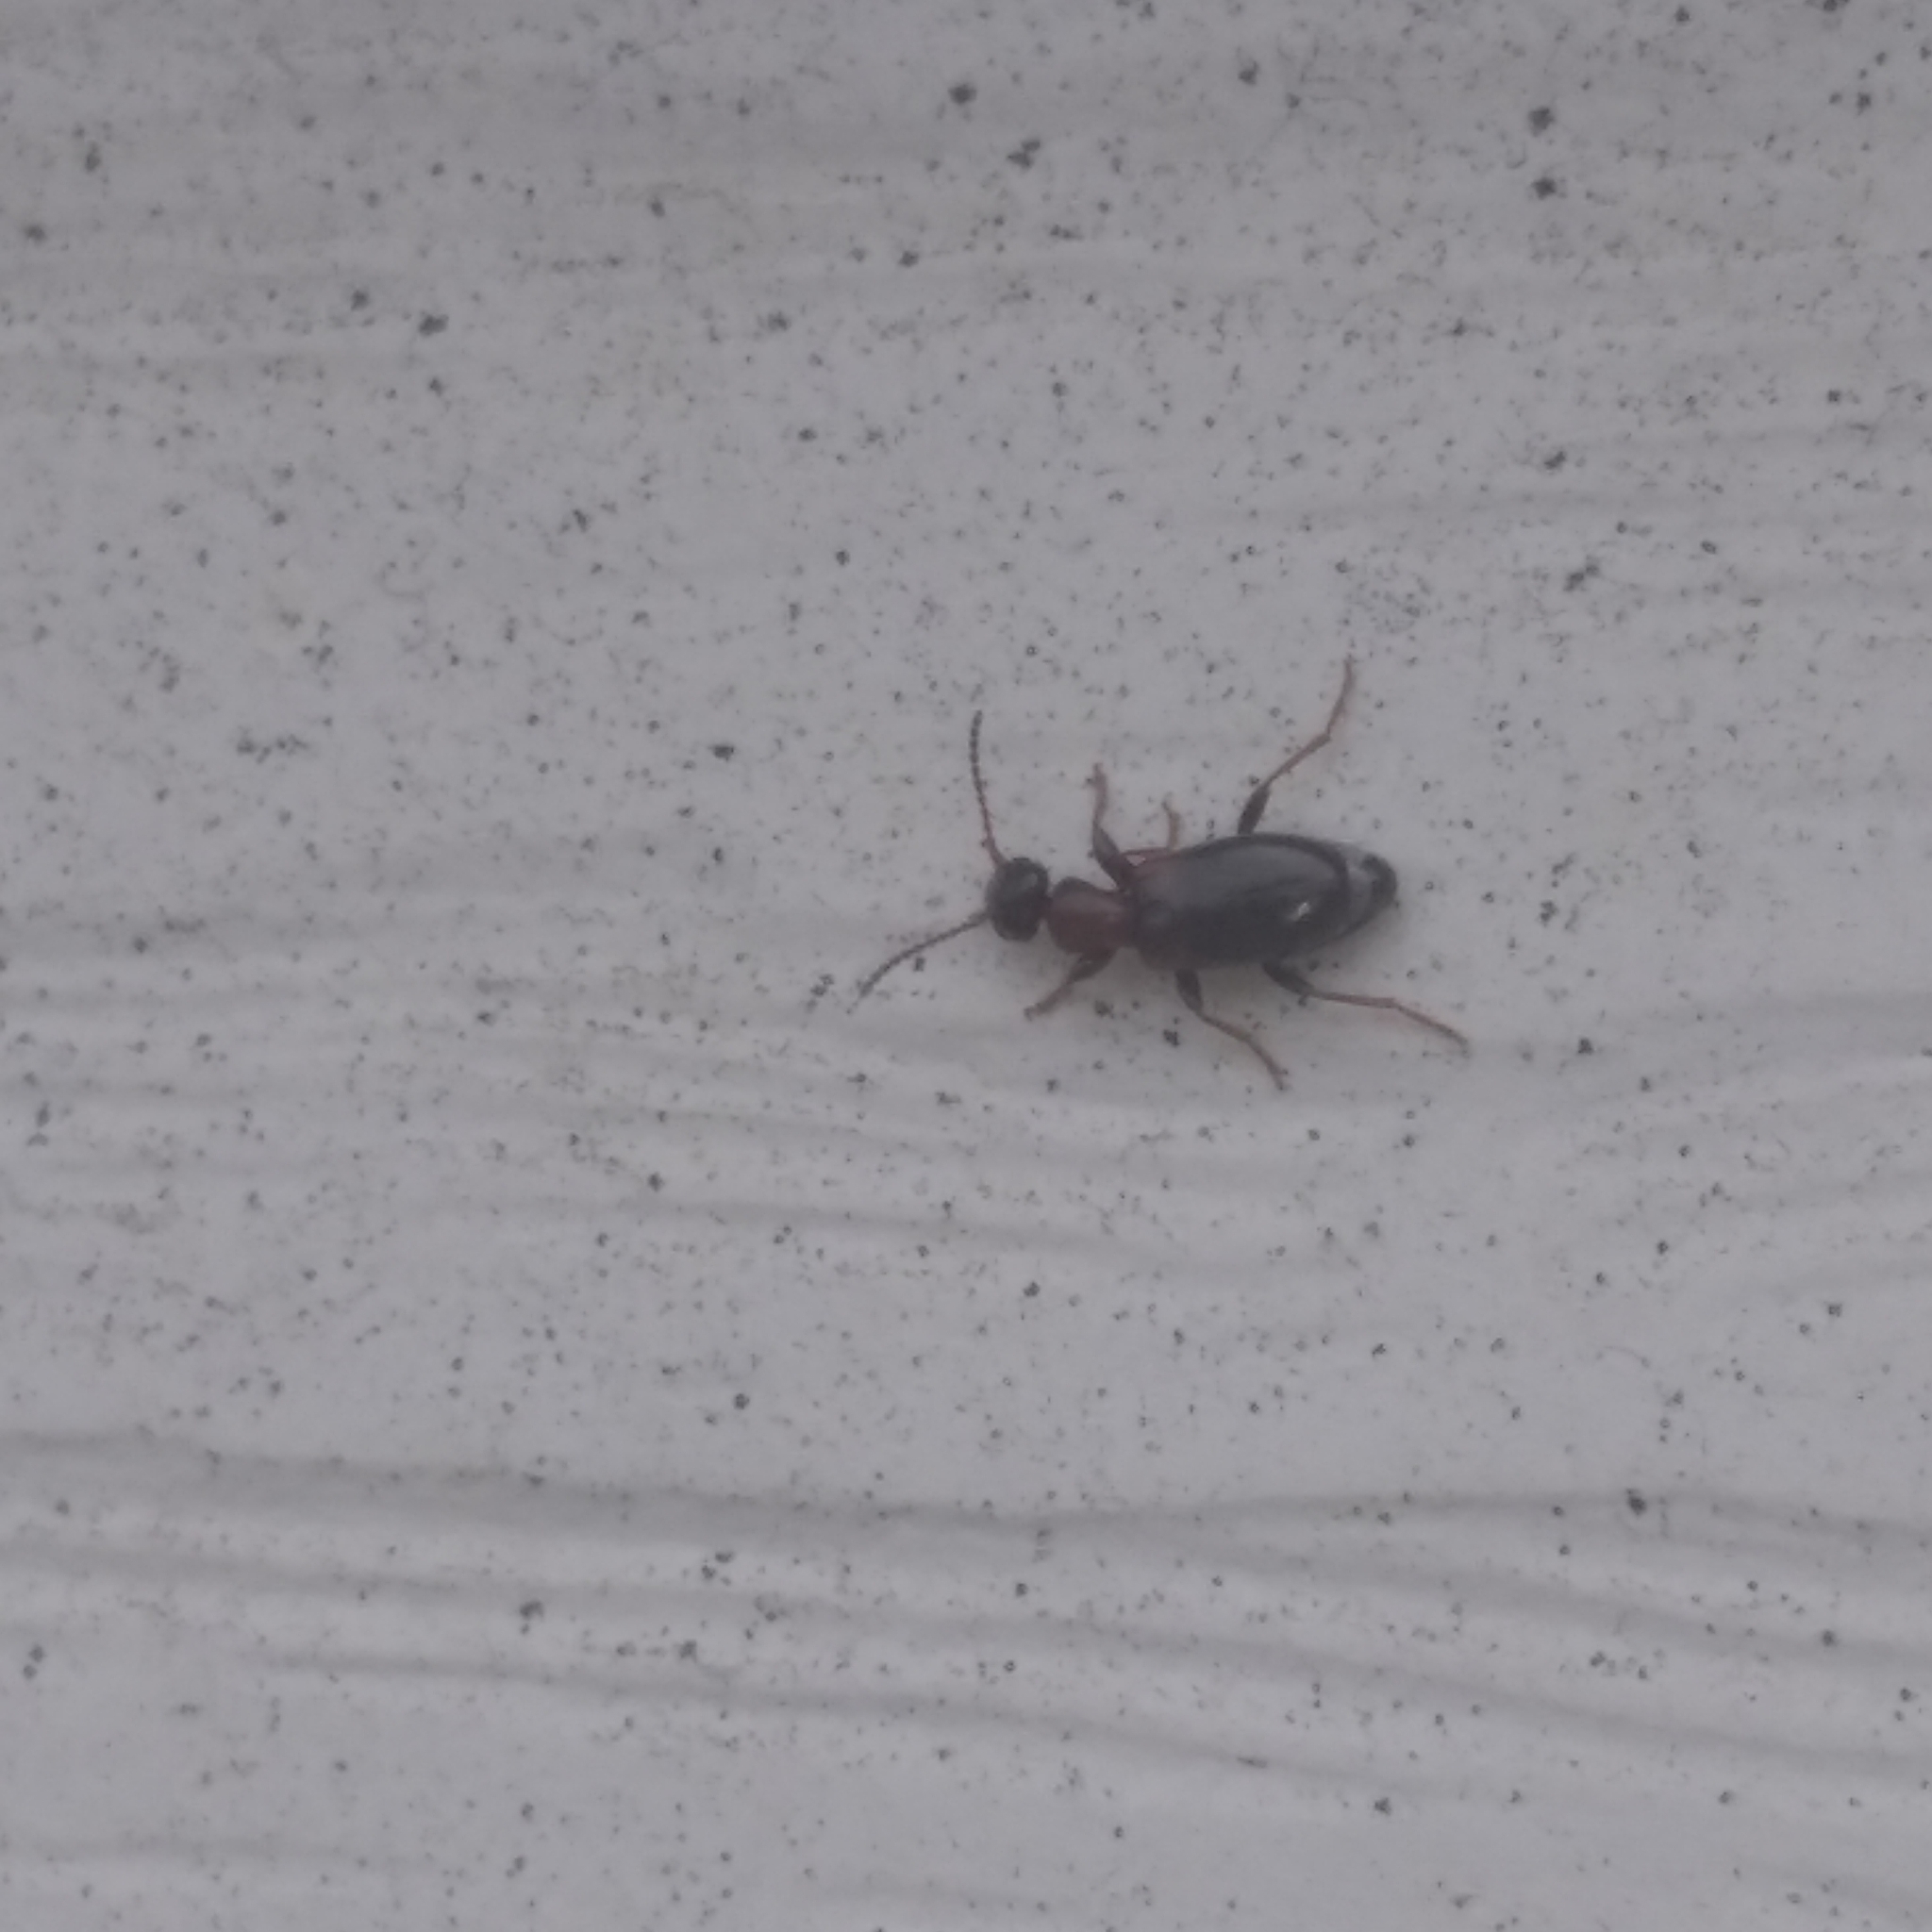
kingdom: Animalia
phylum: Arthropoda
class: Insecta
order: Coleoptera
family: Anthicidae
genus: Omonadus
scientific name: Omonadus
